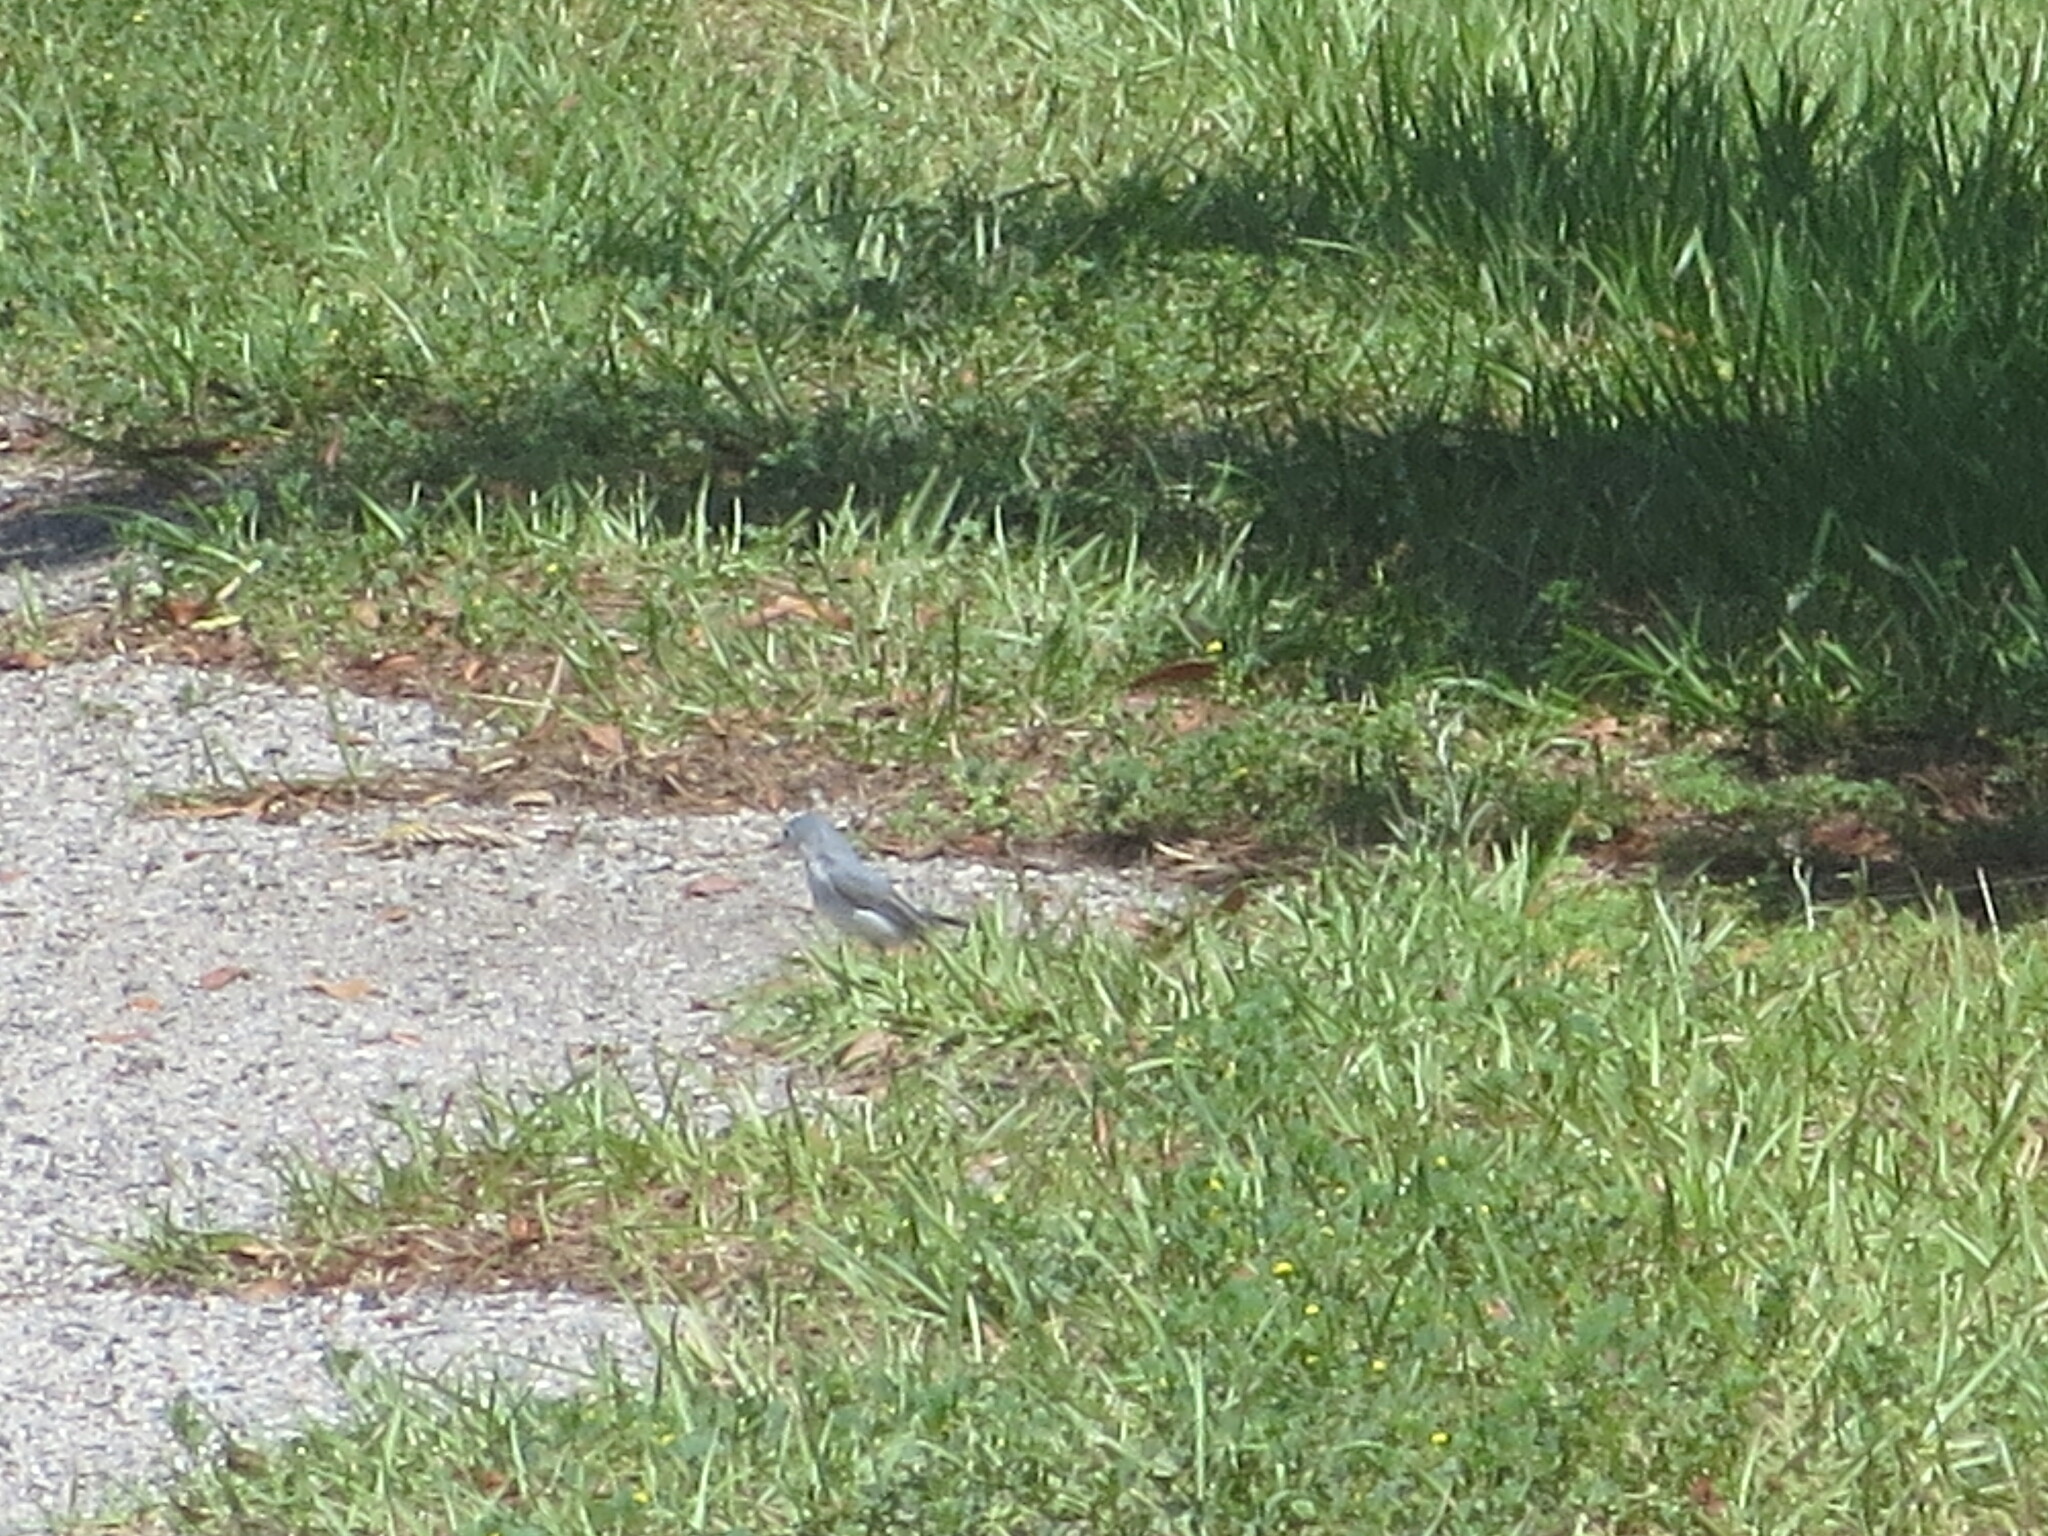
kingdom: Animalia
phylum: Chordata
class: Aves
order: Passeriformes
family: Polioptilidae
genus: Polioptila
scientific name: Polioptila caerulea
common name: Blue-gray gnatcatcher
